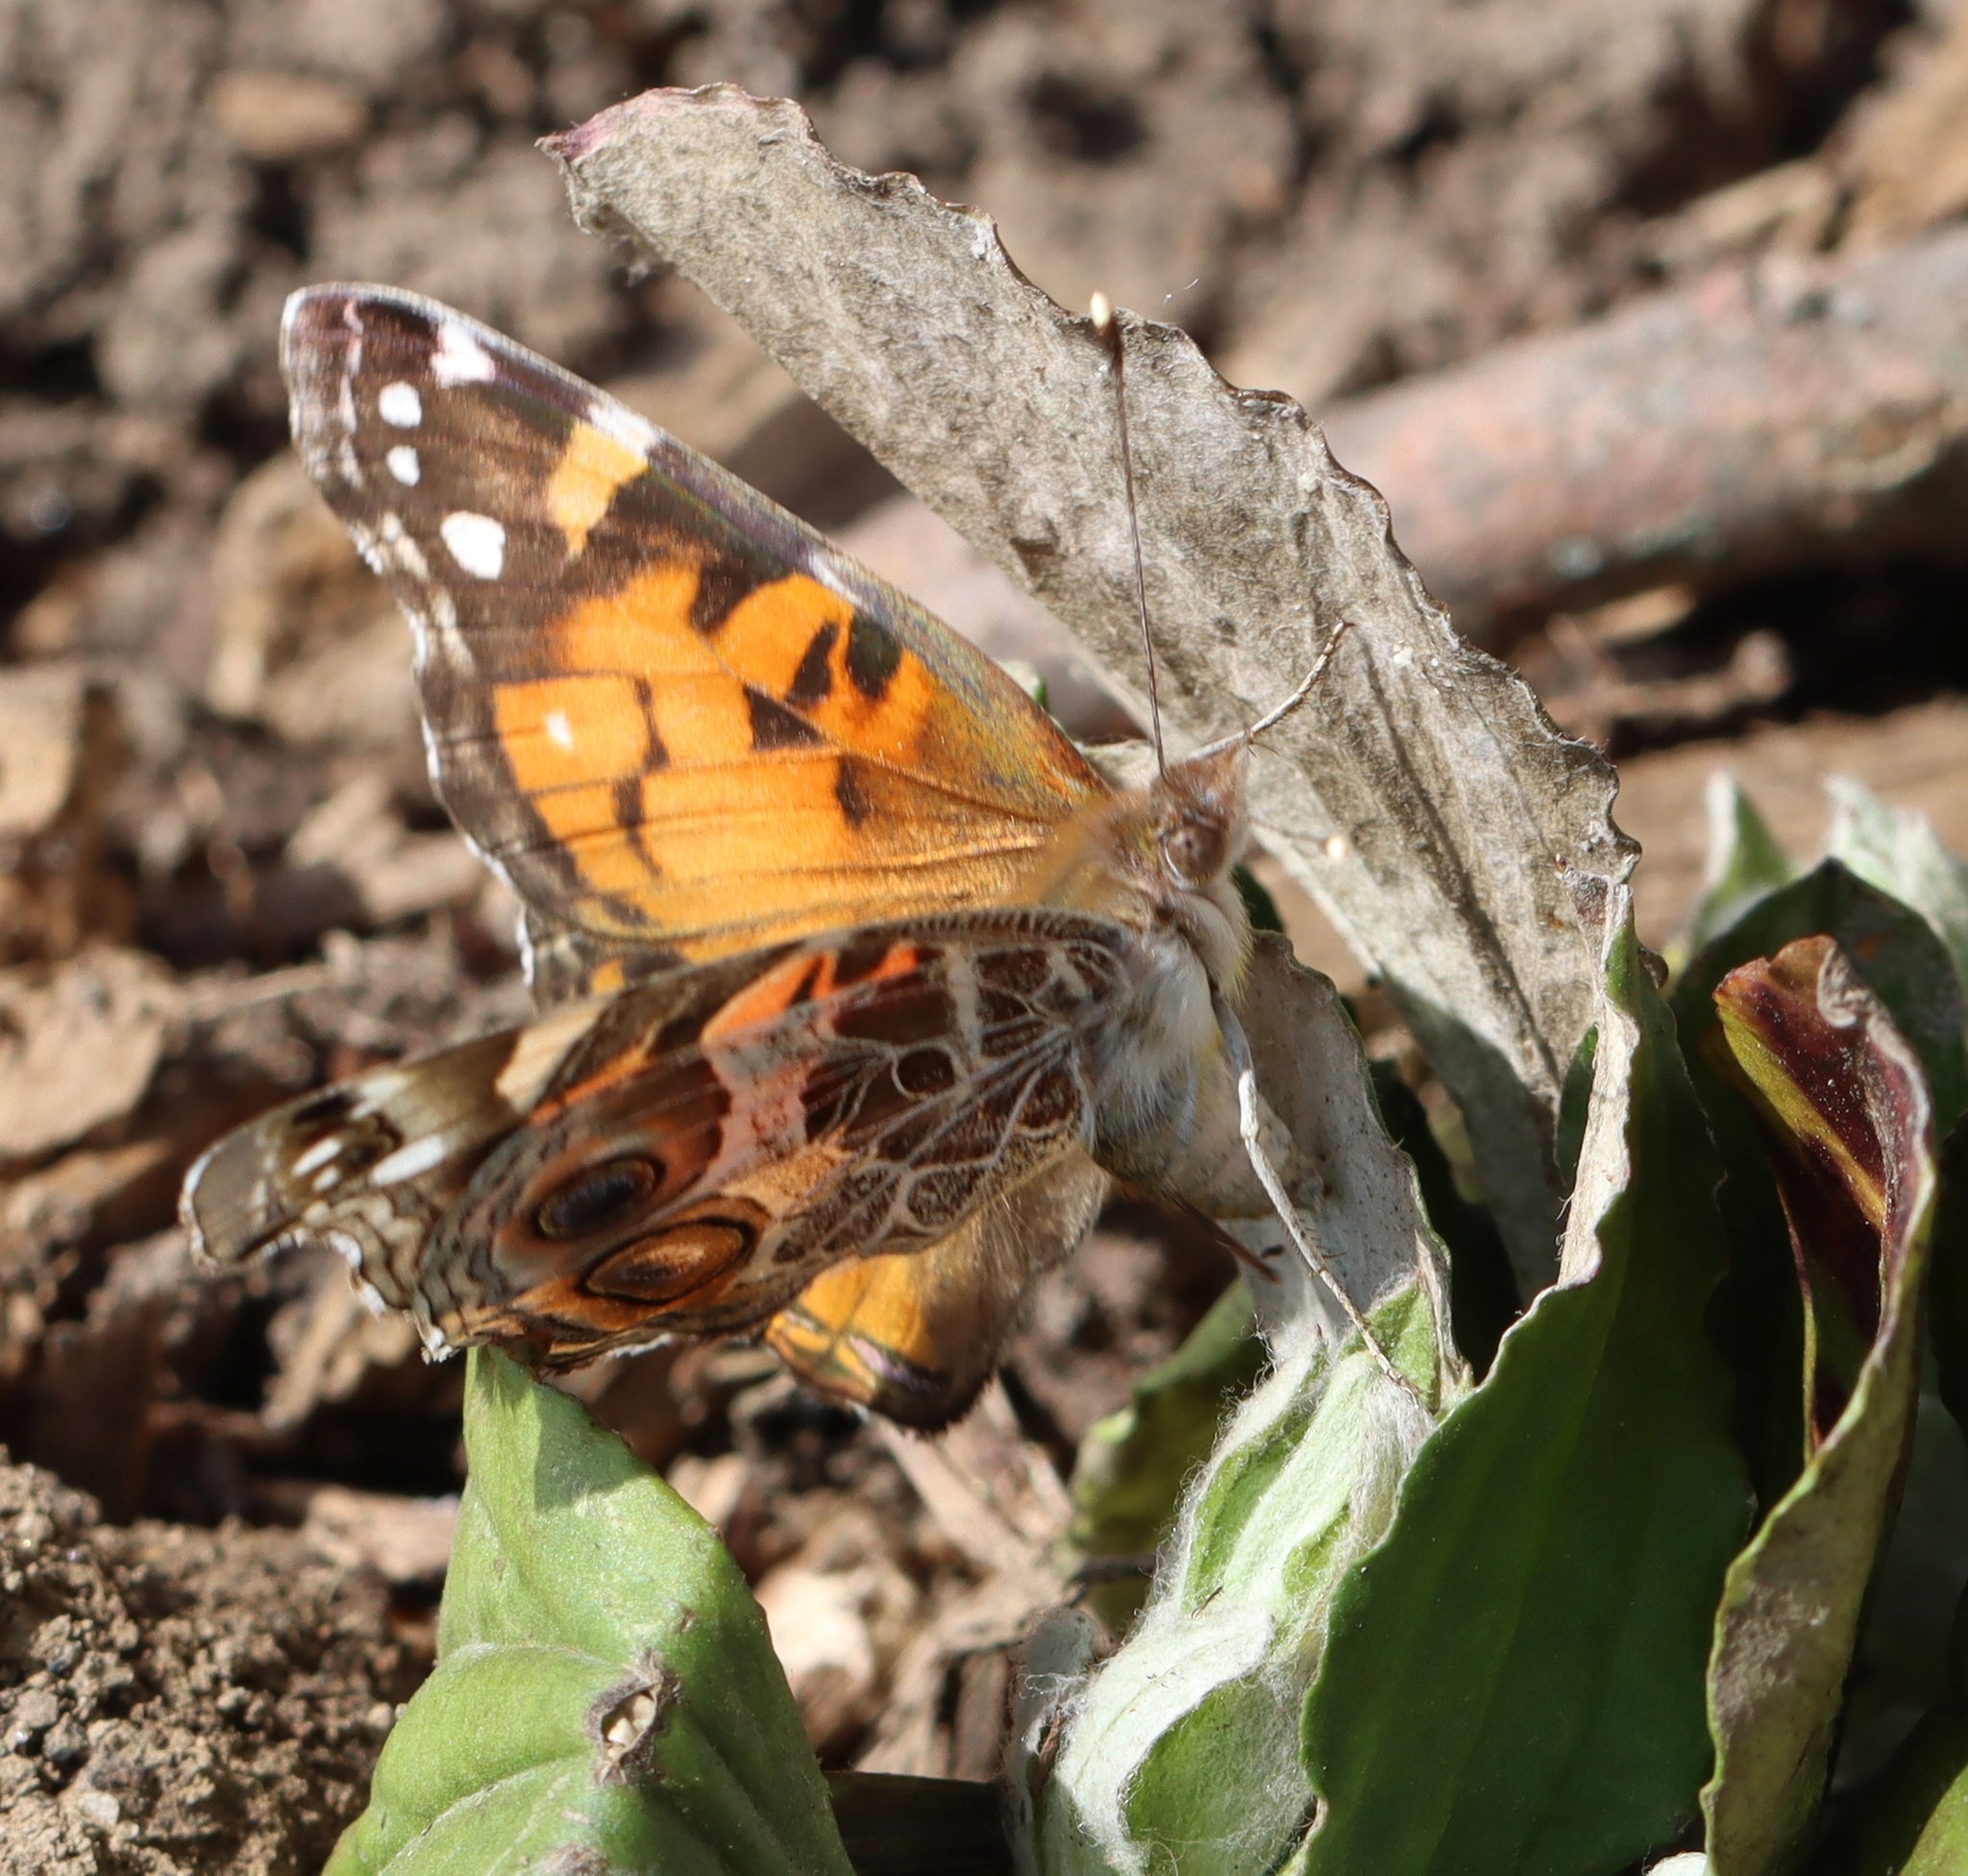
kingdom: Animalia
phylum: Arthropoda
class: Insecta
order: Lepidoptera
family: Nymphalidae
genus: Vanessa
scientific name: Vanessa virginiensis
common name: American lady
